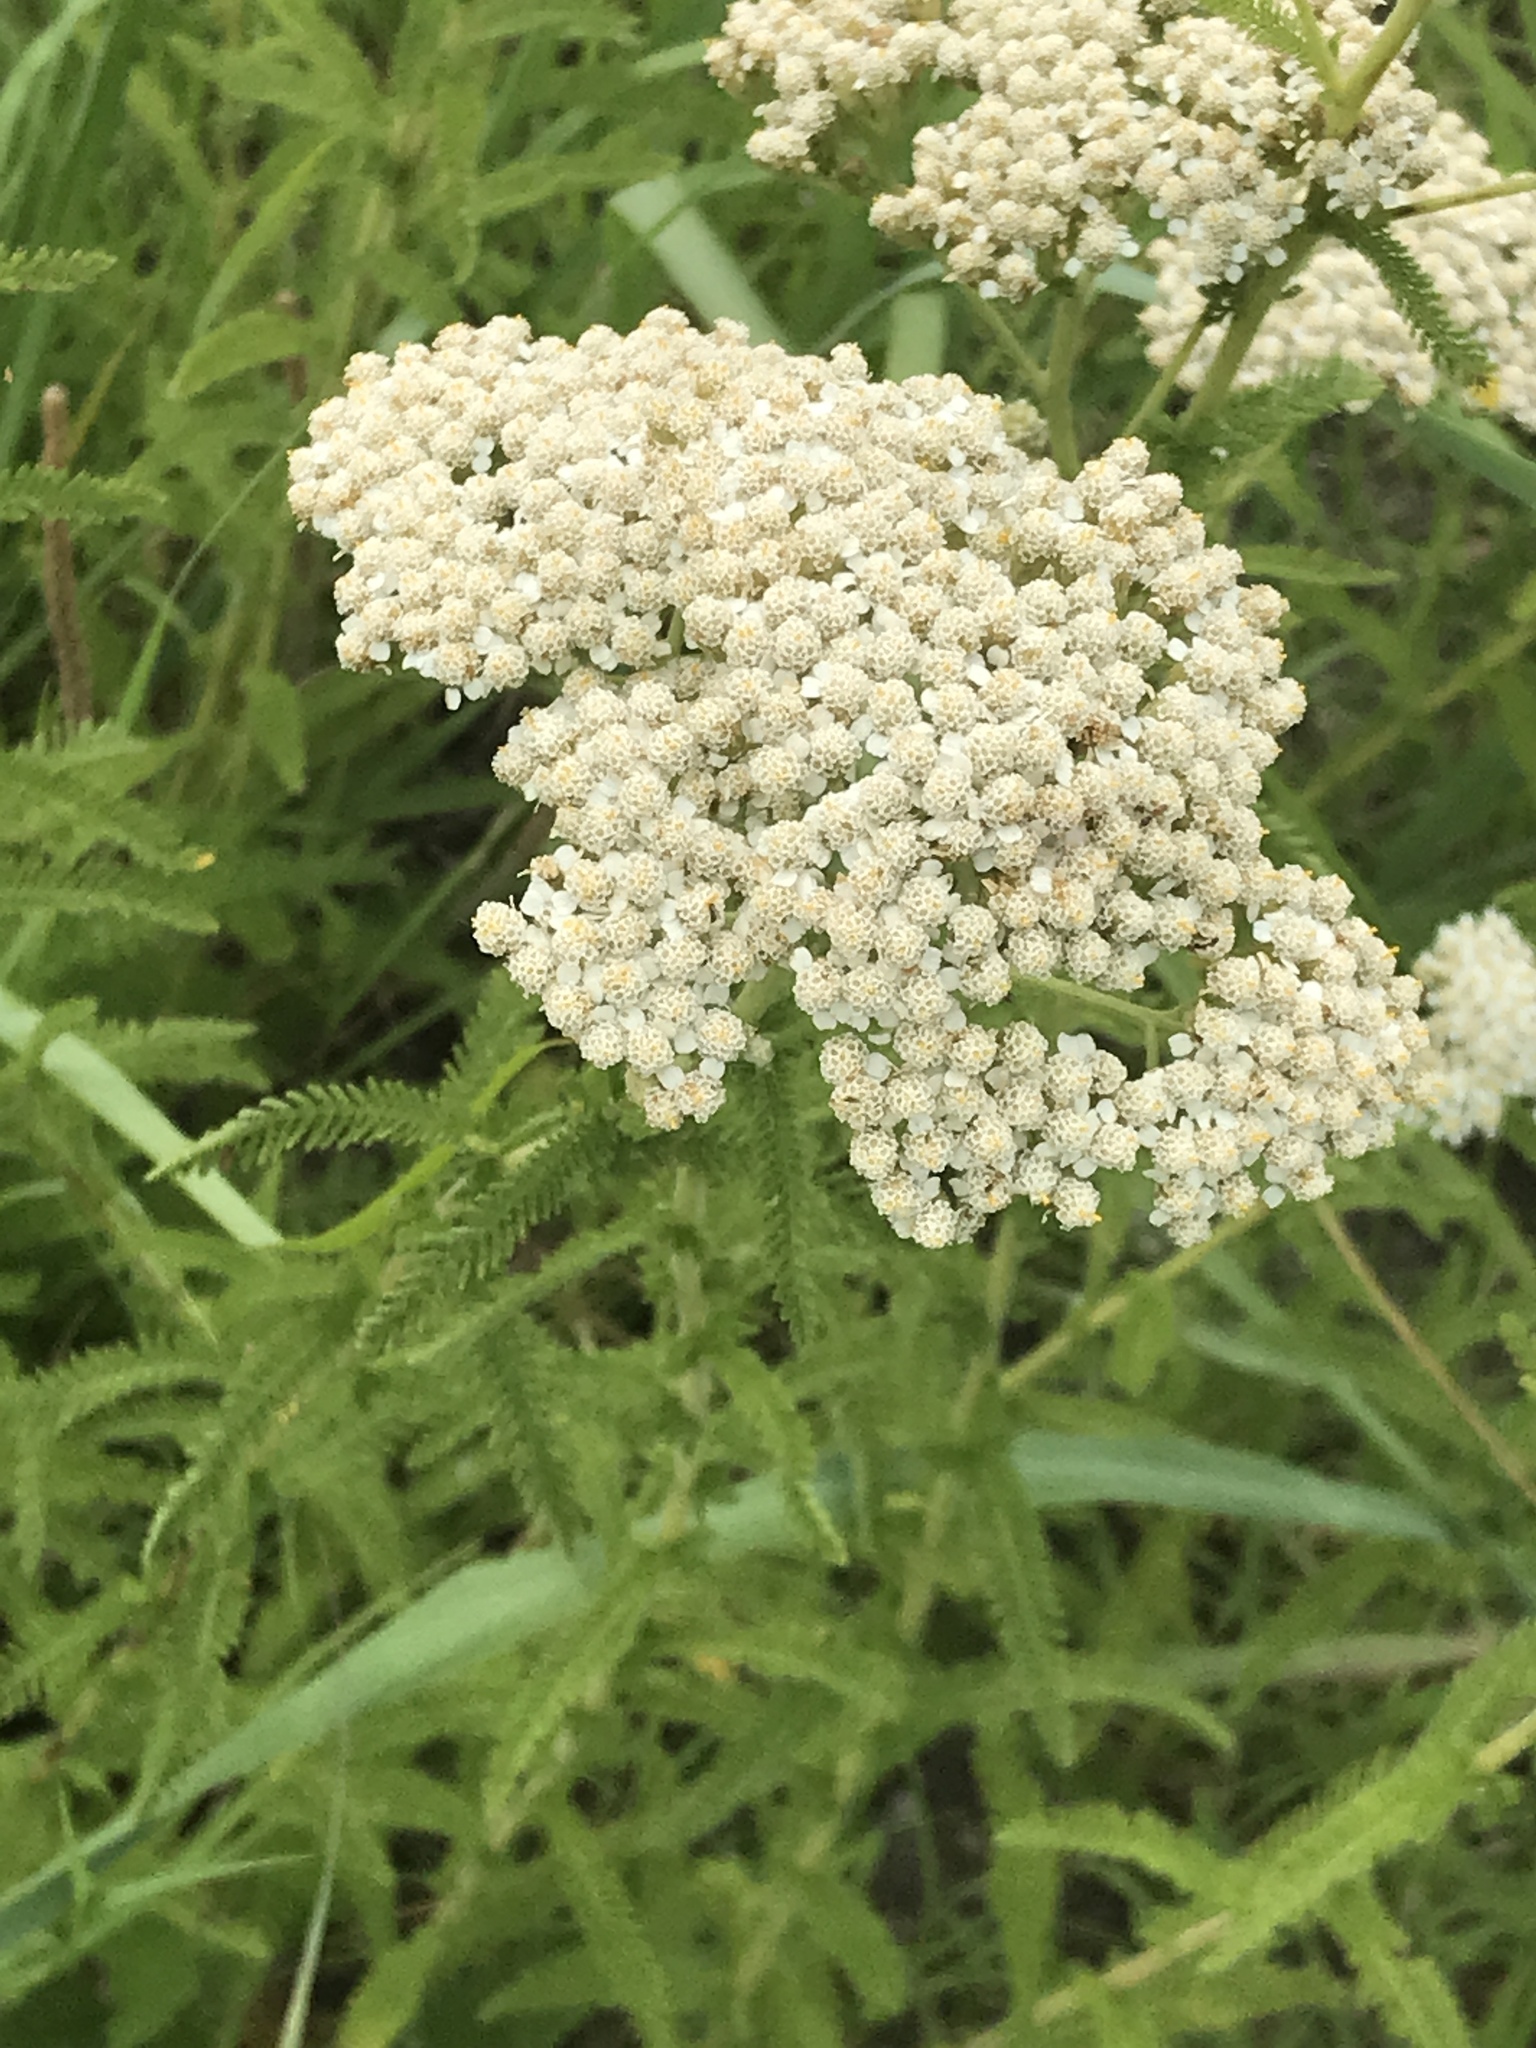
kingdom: Plantae
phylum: Tracheophyta
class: Magnoliopsida
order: Asterales
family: Asteraceae
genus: Achillea
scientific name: Achillea millefolium
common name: Yarrow
